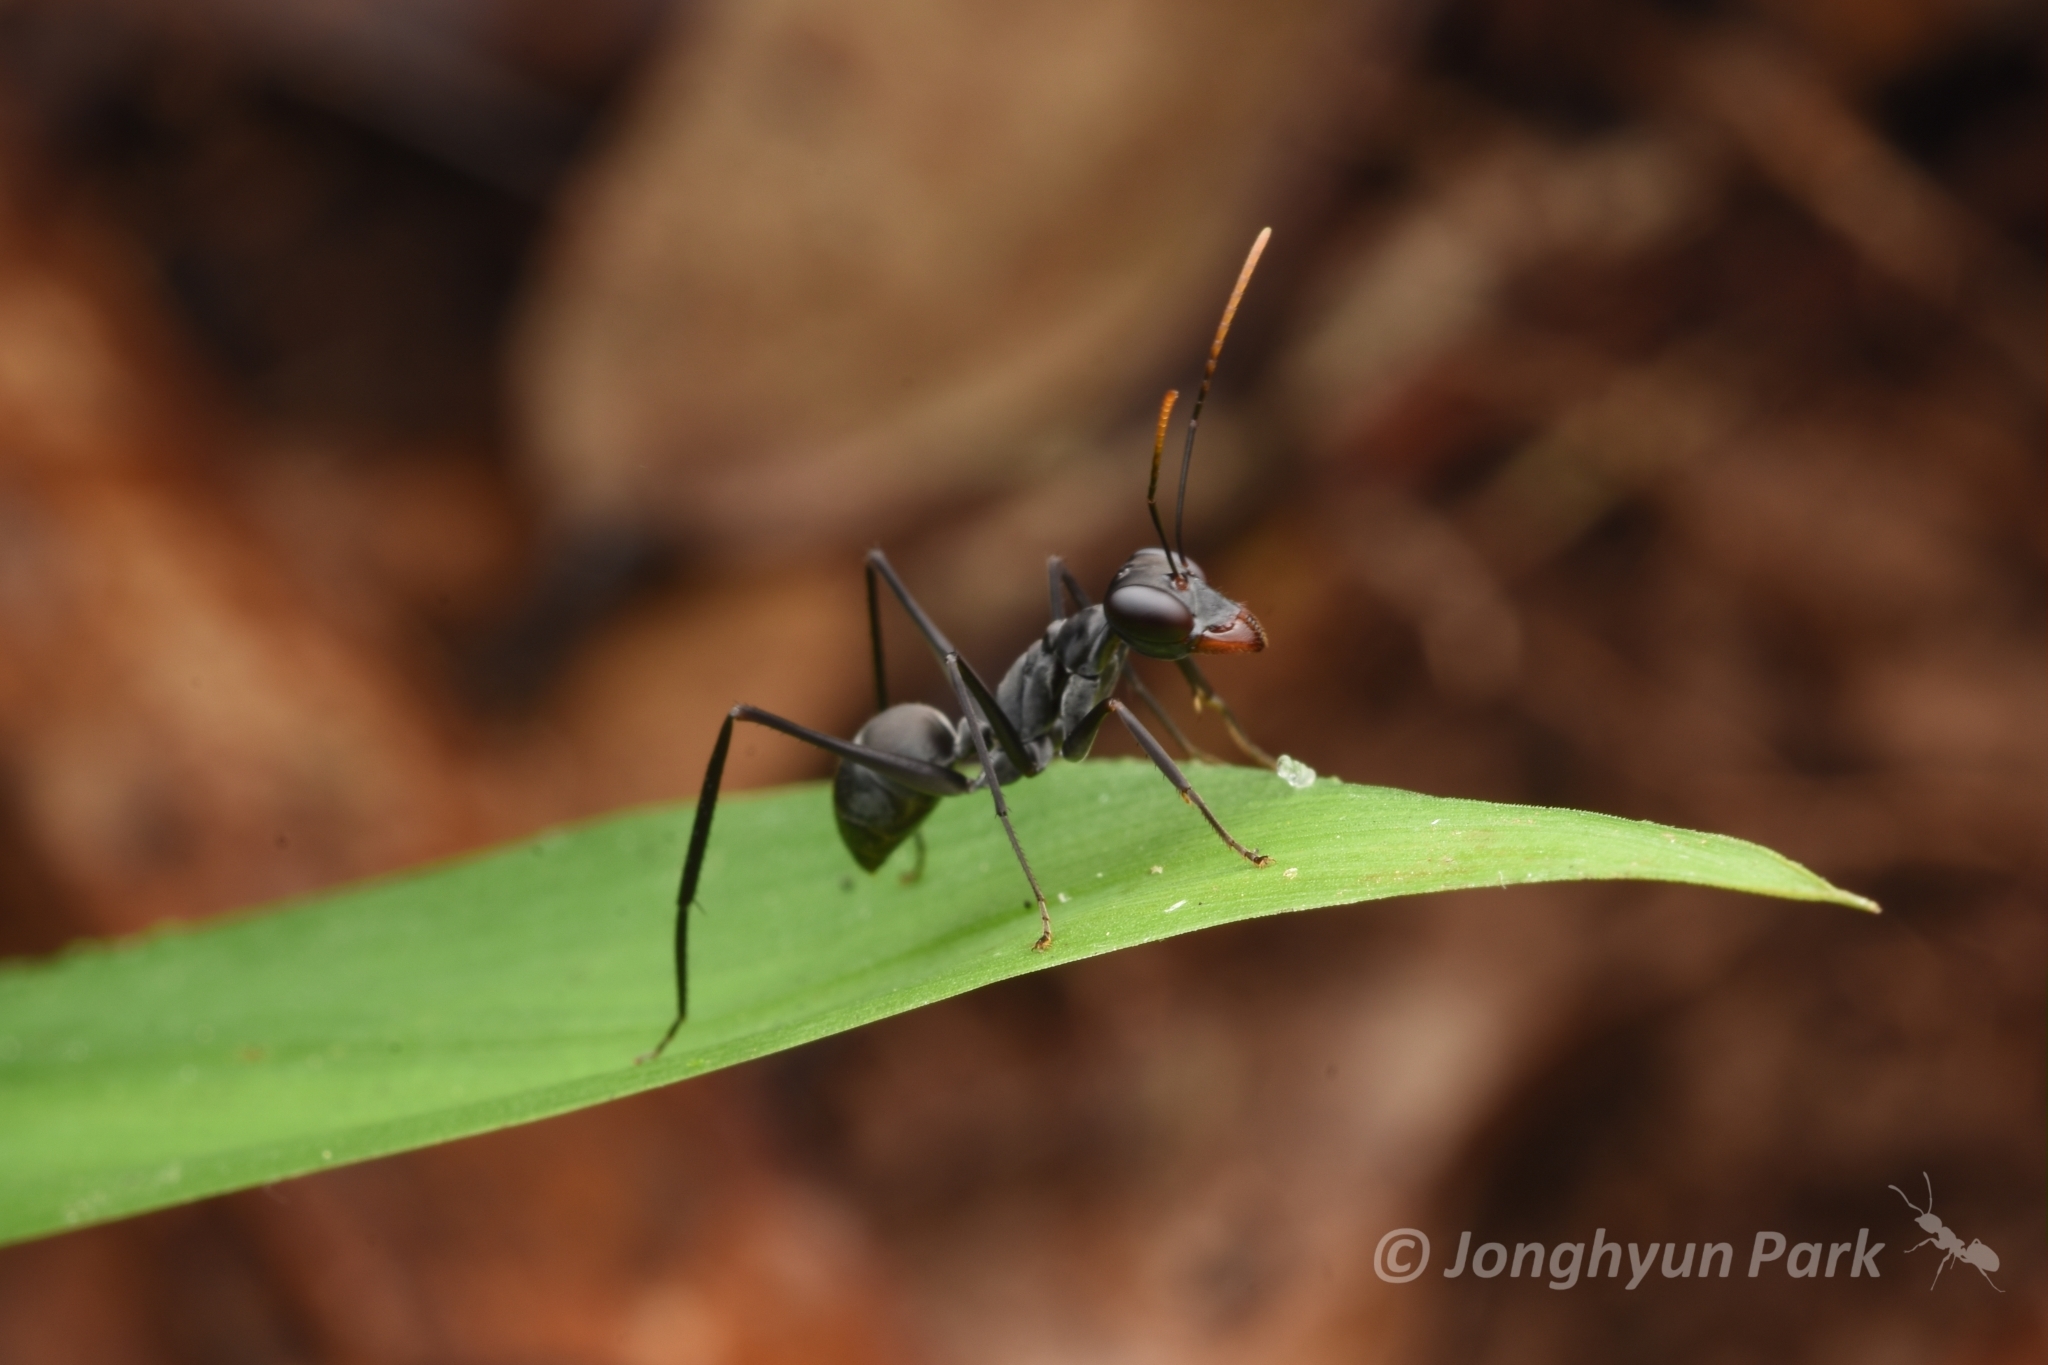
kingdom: Animalia
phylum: Arthropoda
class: Insecta
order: Hymenoptera
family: Formicidae
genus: Gigantiops
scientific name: Gigantiops destructor
